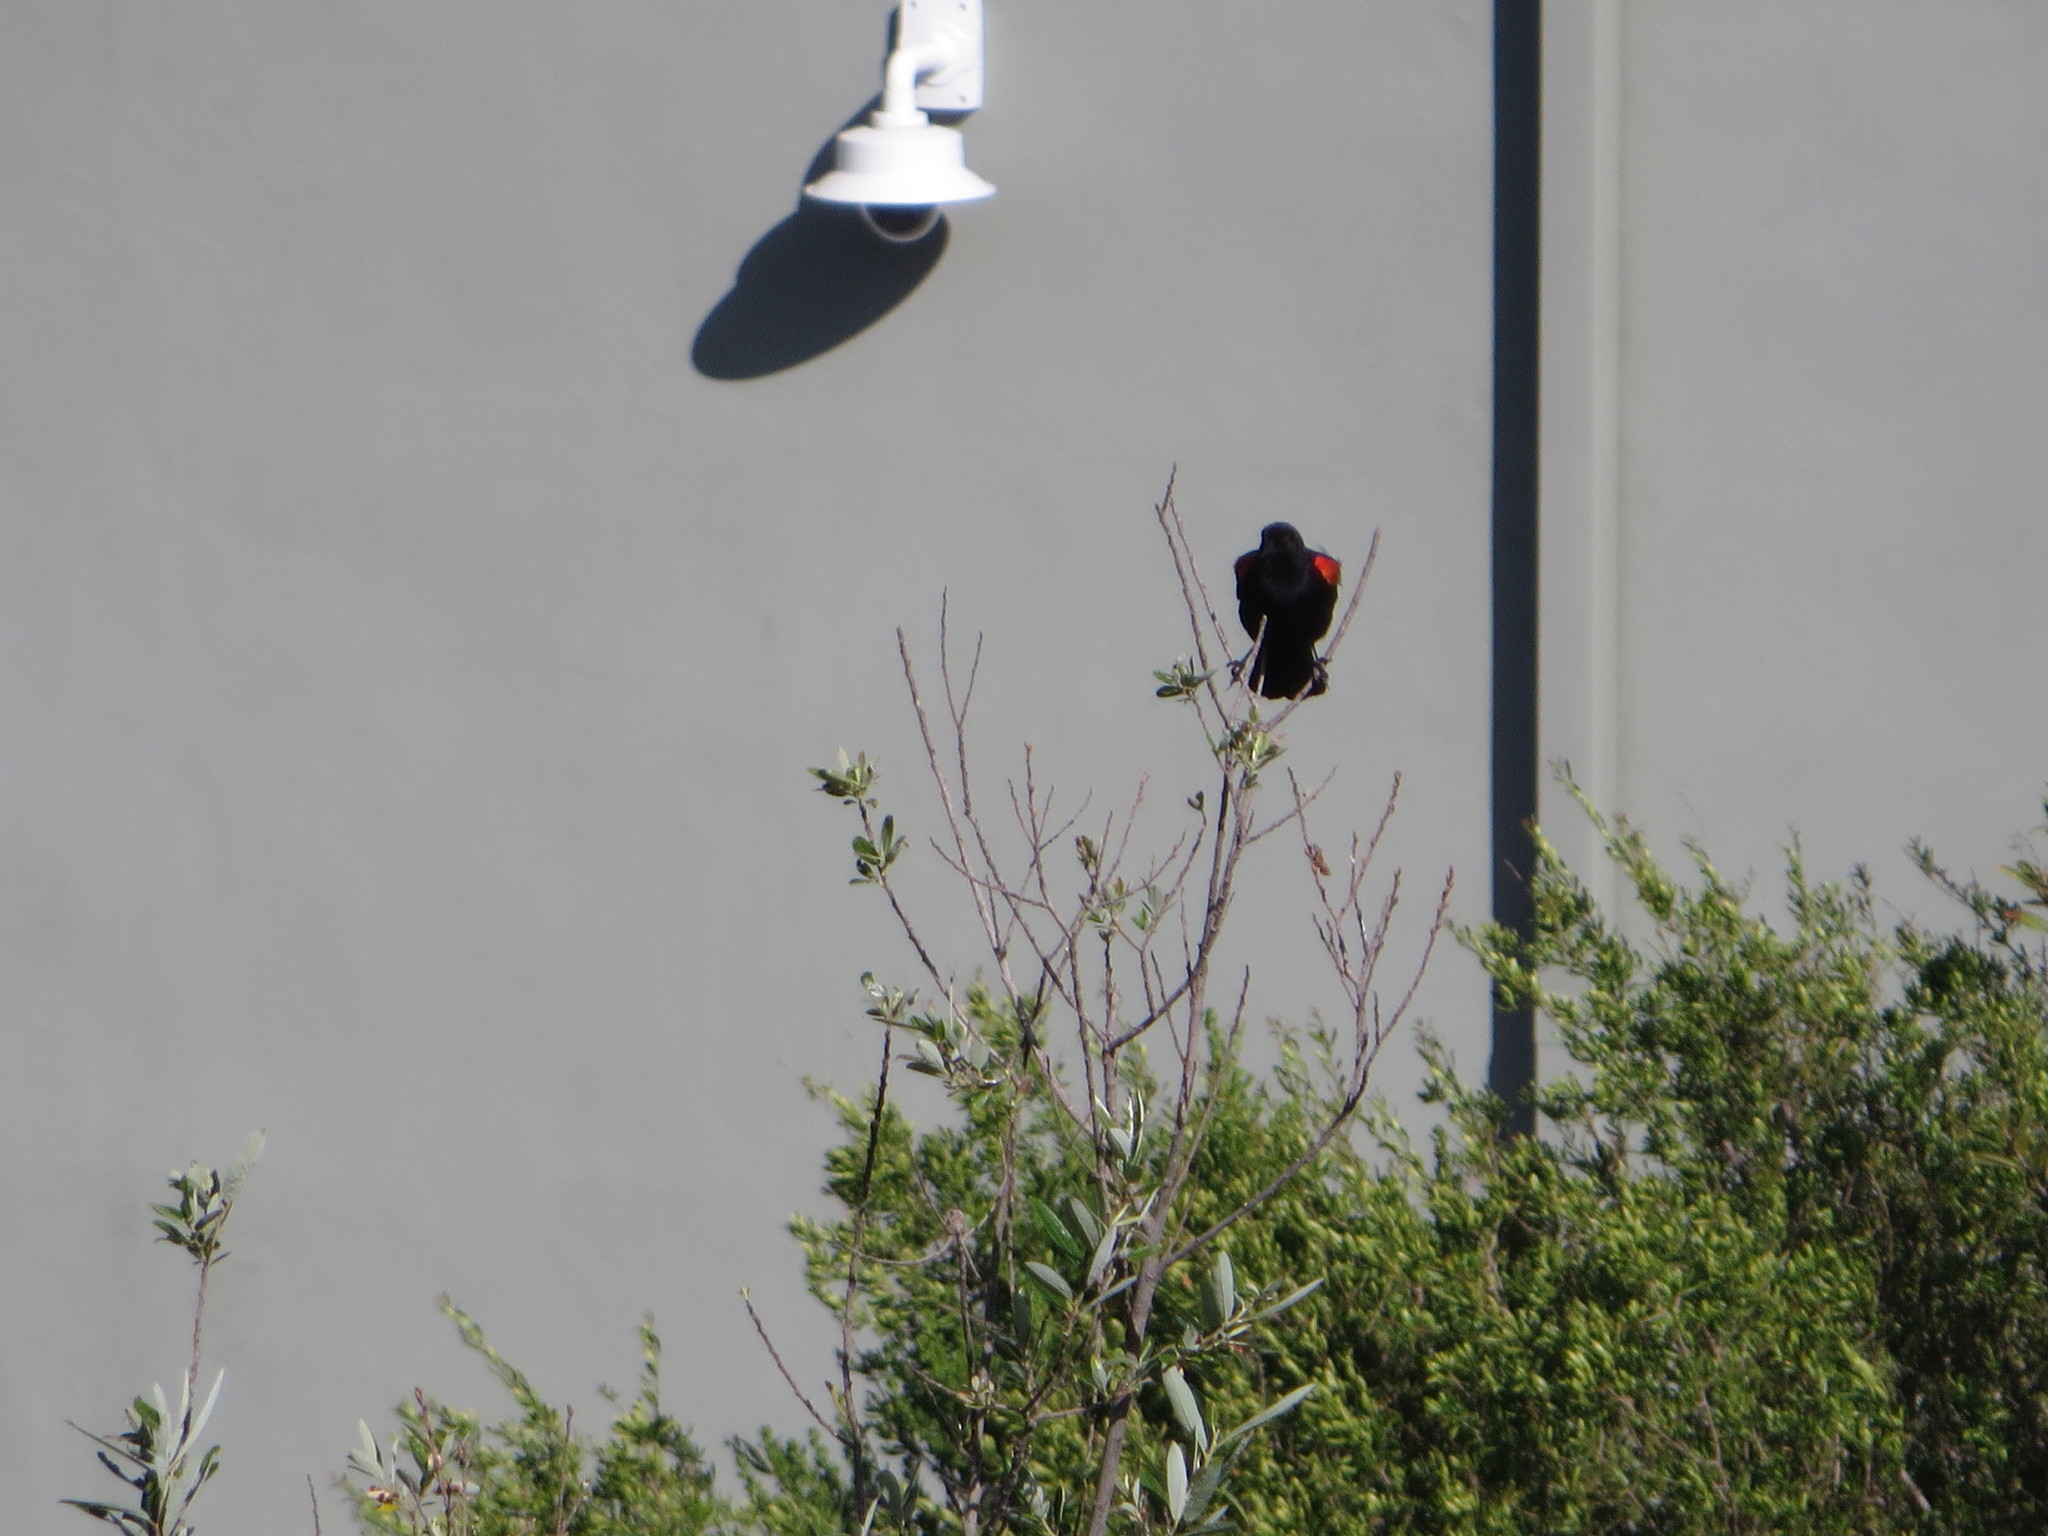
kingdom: Animalia
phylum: Chordata
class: Aves
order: Passeriformes
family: Icteridae
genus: Agelaius
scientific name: Agelaius phoeniceus
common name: Red-winged blackbird
